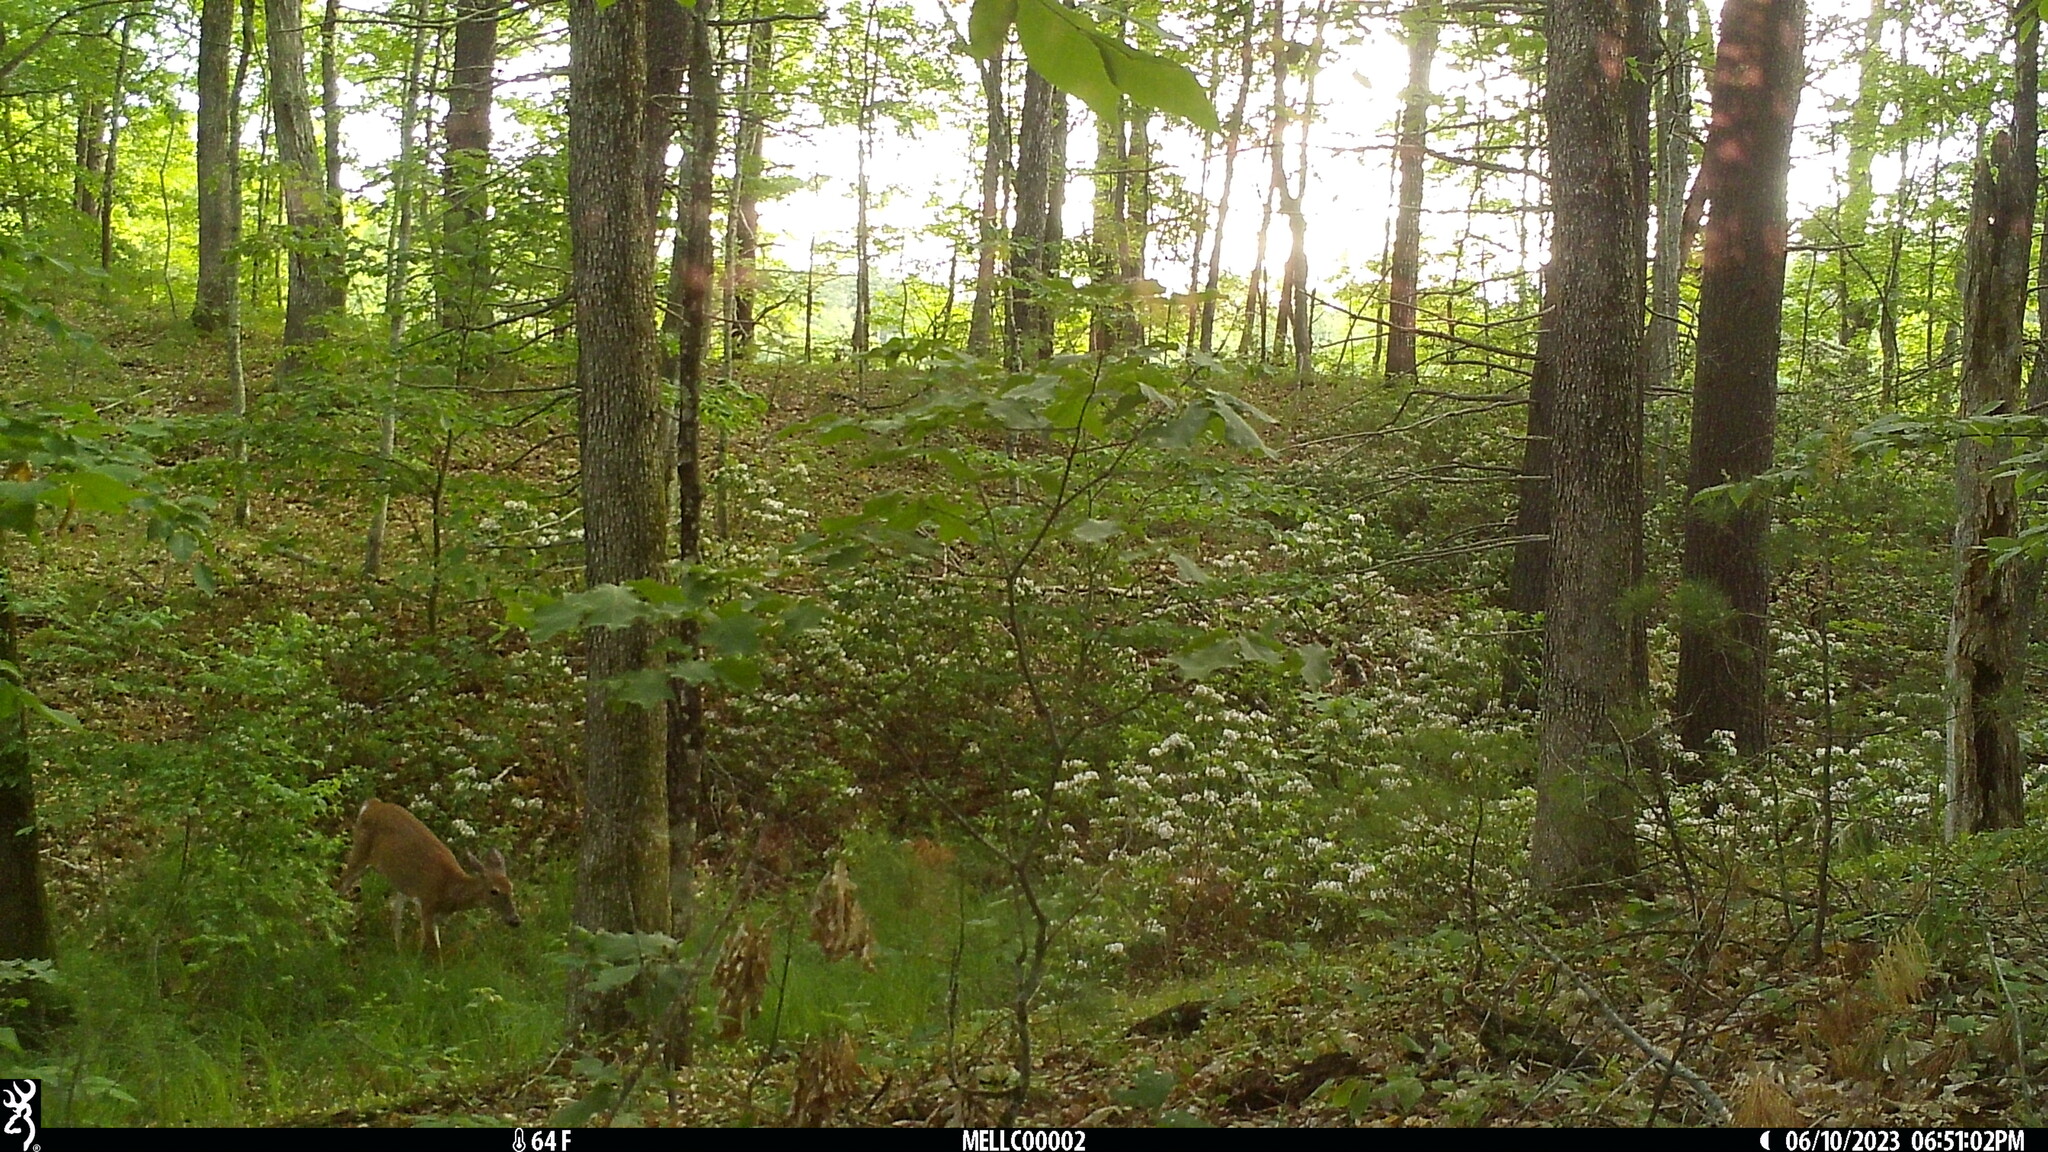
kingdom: Animalia
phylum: Chordata
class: Mammalia
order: Artiodactyla
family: Cervidae
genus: Odocoileus
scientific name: Odocoileus virginianus
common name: White-tailed deer
